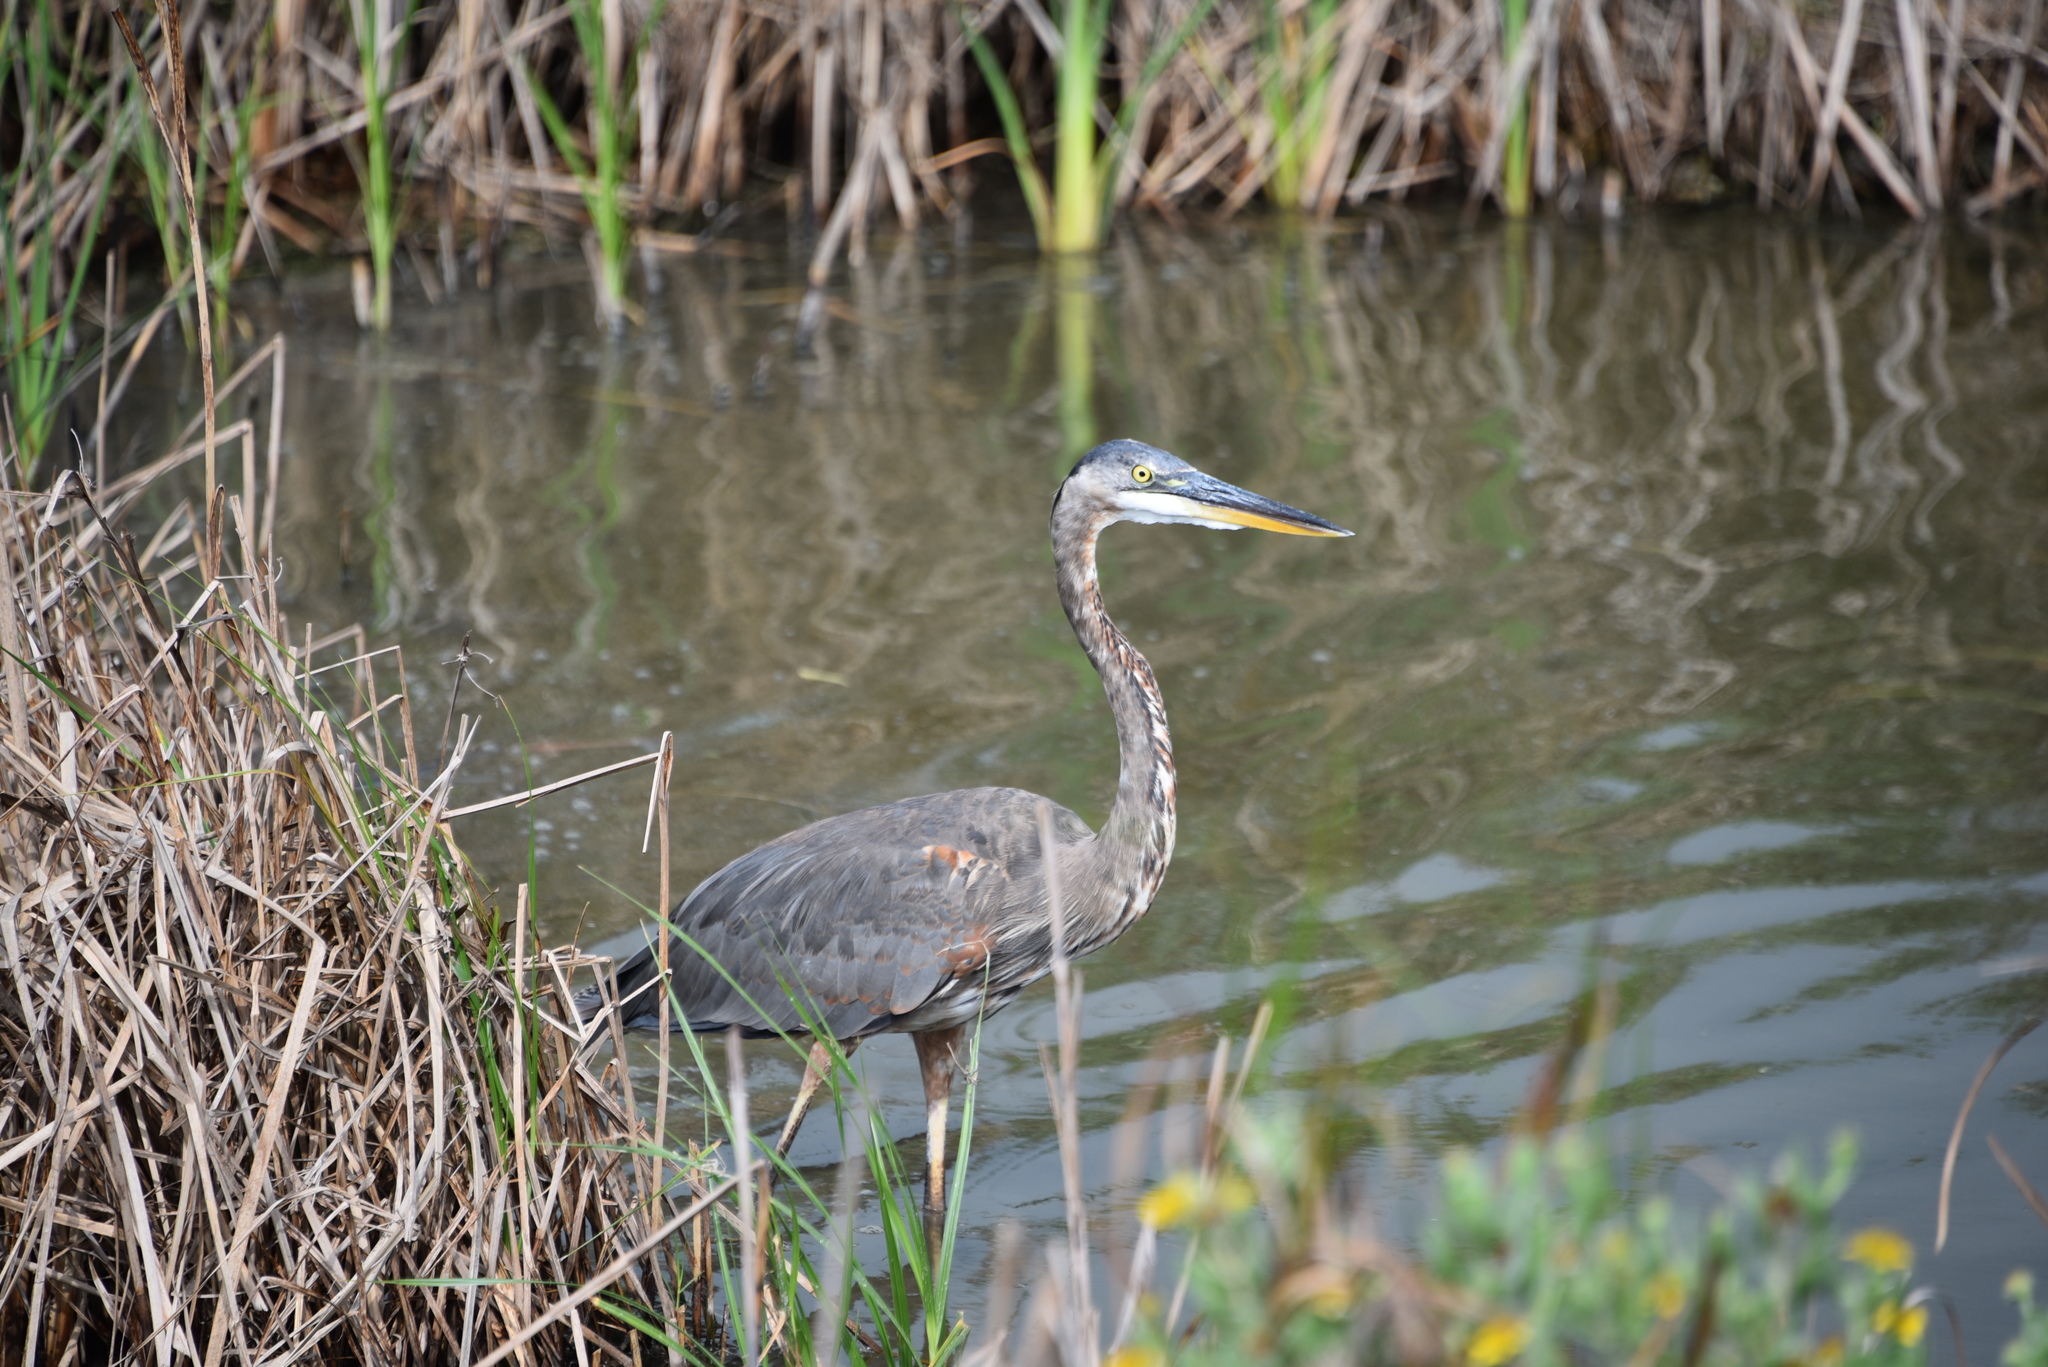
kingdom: Animalia
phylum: Chordata
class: Aves
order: Pelecaniformes
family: Ardeidae
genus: Ardea
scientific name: Ardea herodias
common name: Great blue heron
